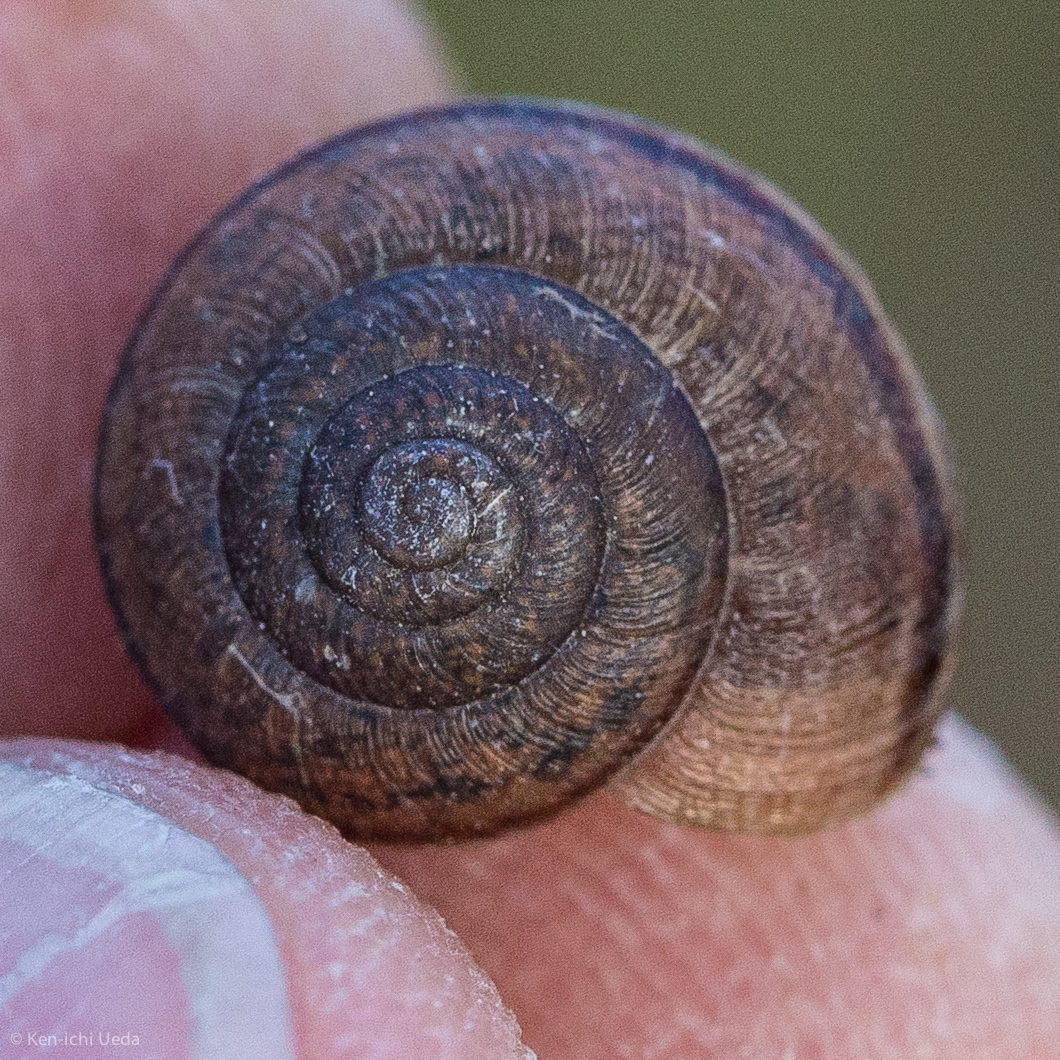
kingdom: Animalia
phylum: Mollusca
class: Gastropoda
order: Stylommatophora
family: Xanthonychidae
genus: Helminthoglypta
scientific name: Helminthoglypta nickliniana
